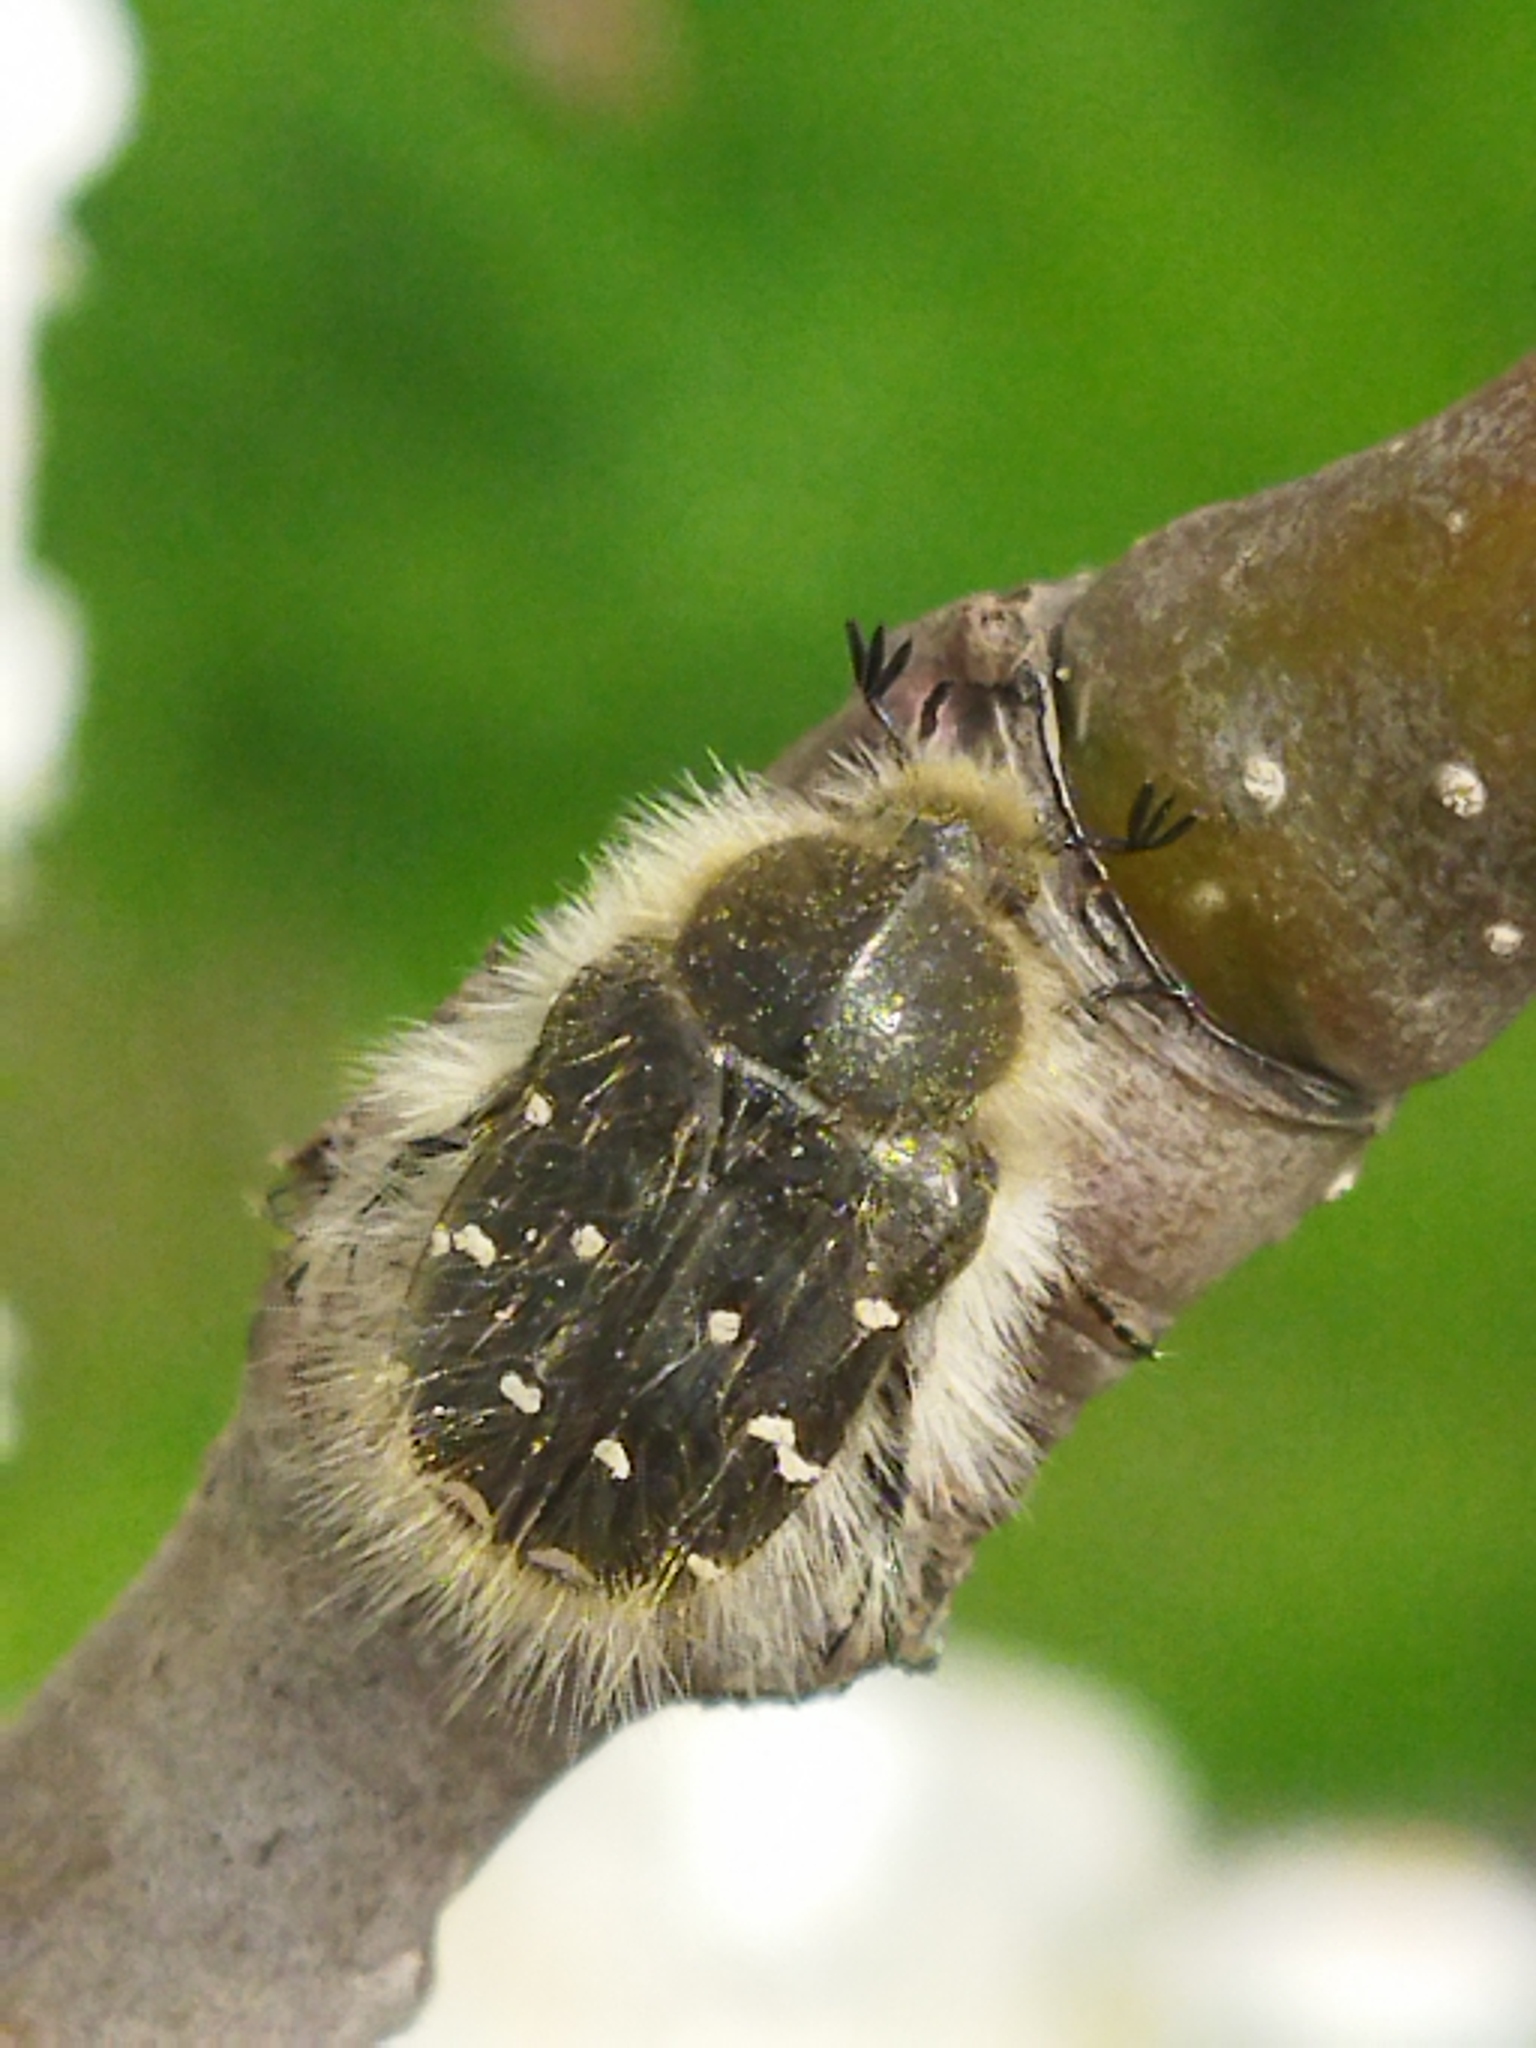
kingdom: Animalia
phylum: Arthropoda
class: Insecta
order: Coleoptera
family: Scarabaeidae
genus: Tropinota
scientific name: Tropinota hirta
